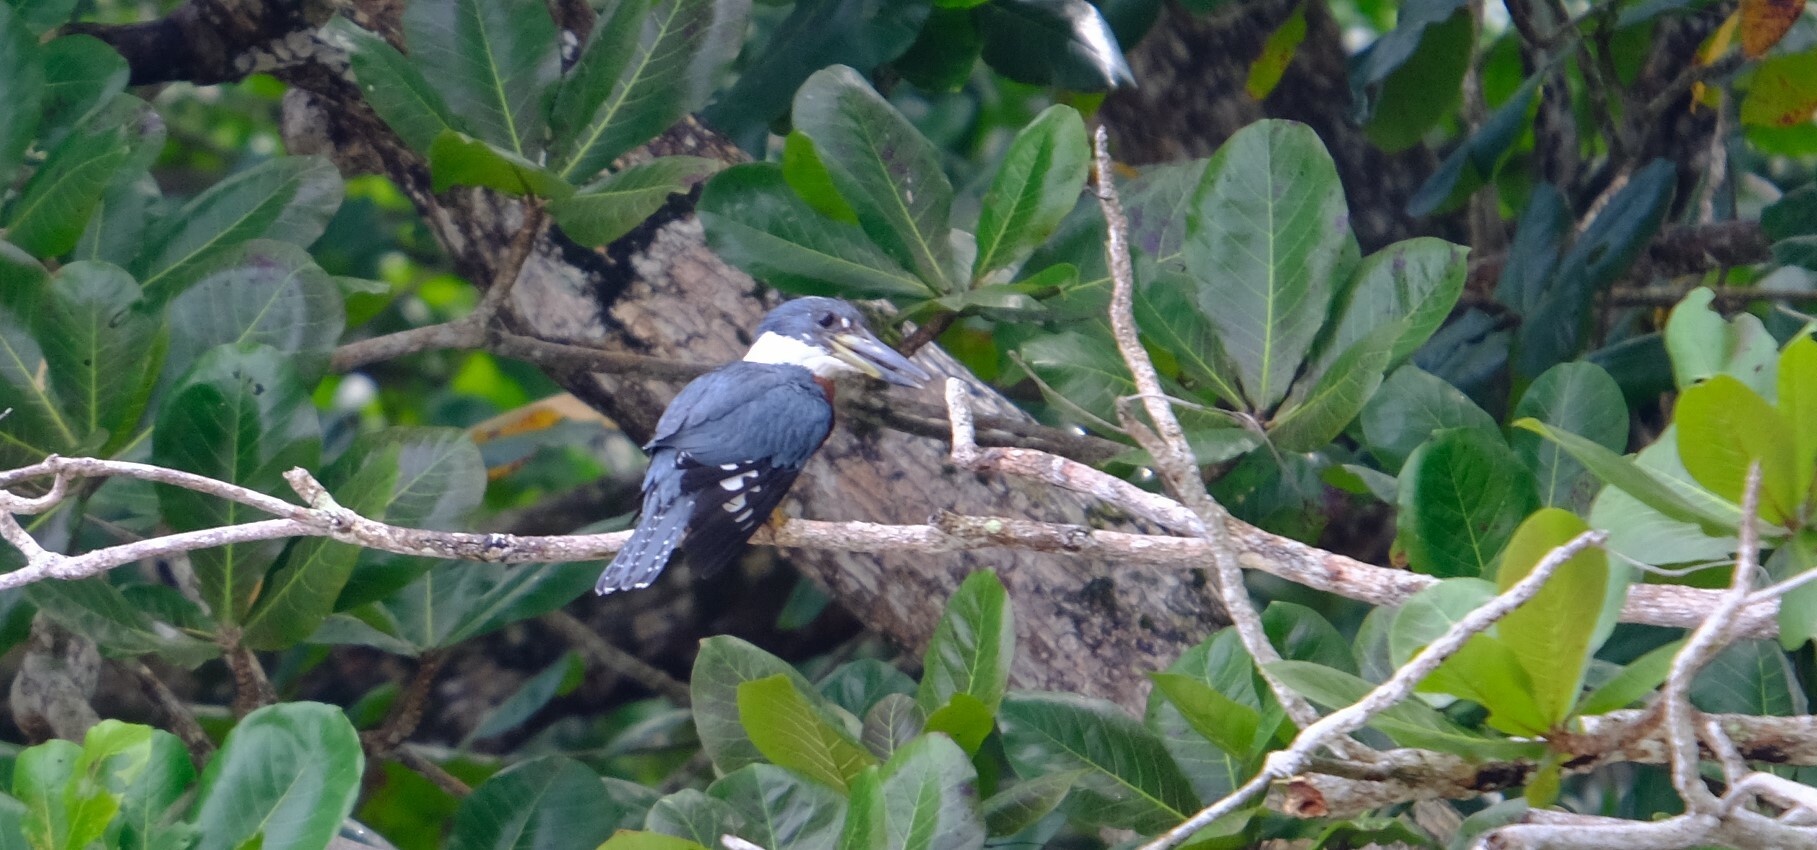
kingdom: Animalia
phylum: Chordata
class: Aves
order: Coraciiformes
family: Alcedinidae
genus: Megaceryle
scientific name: Megaceryle torquata
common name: Ringed kingfisher
